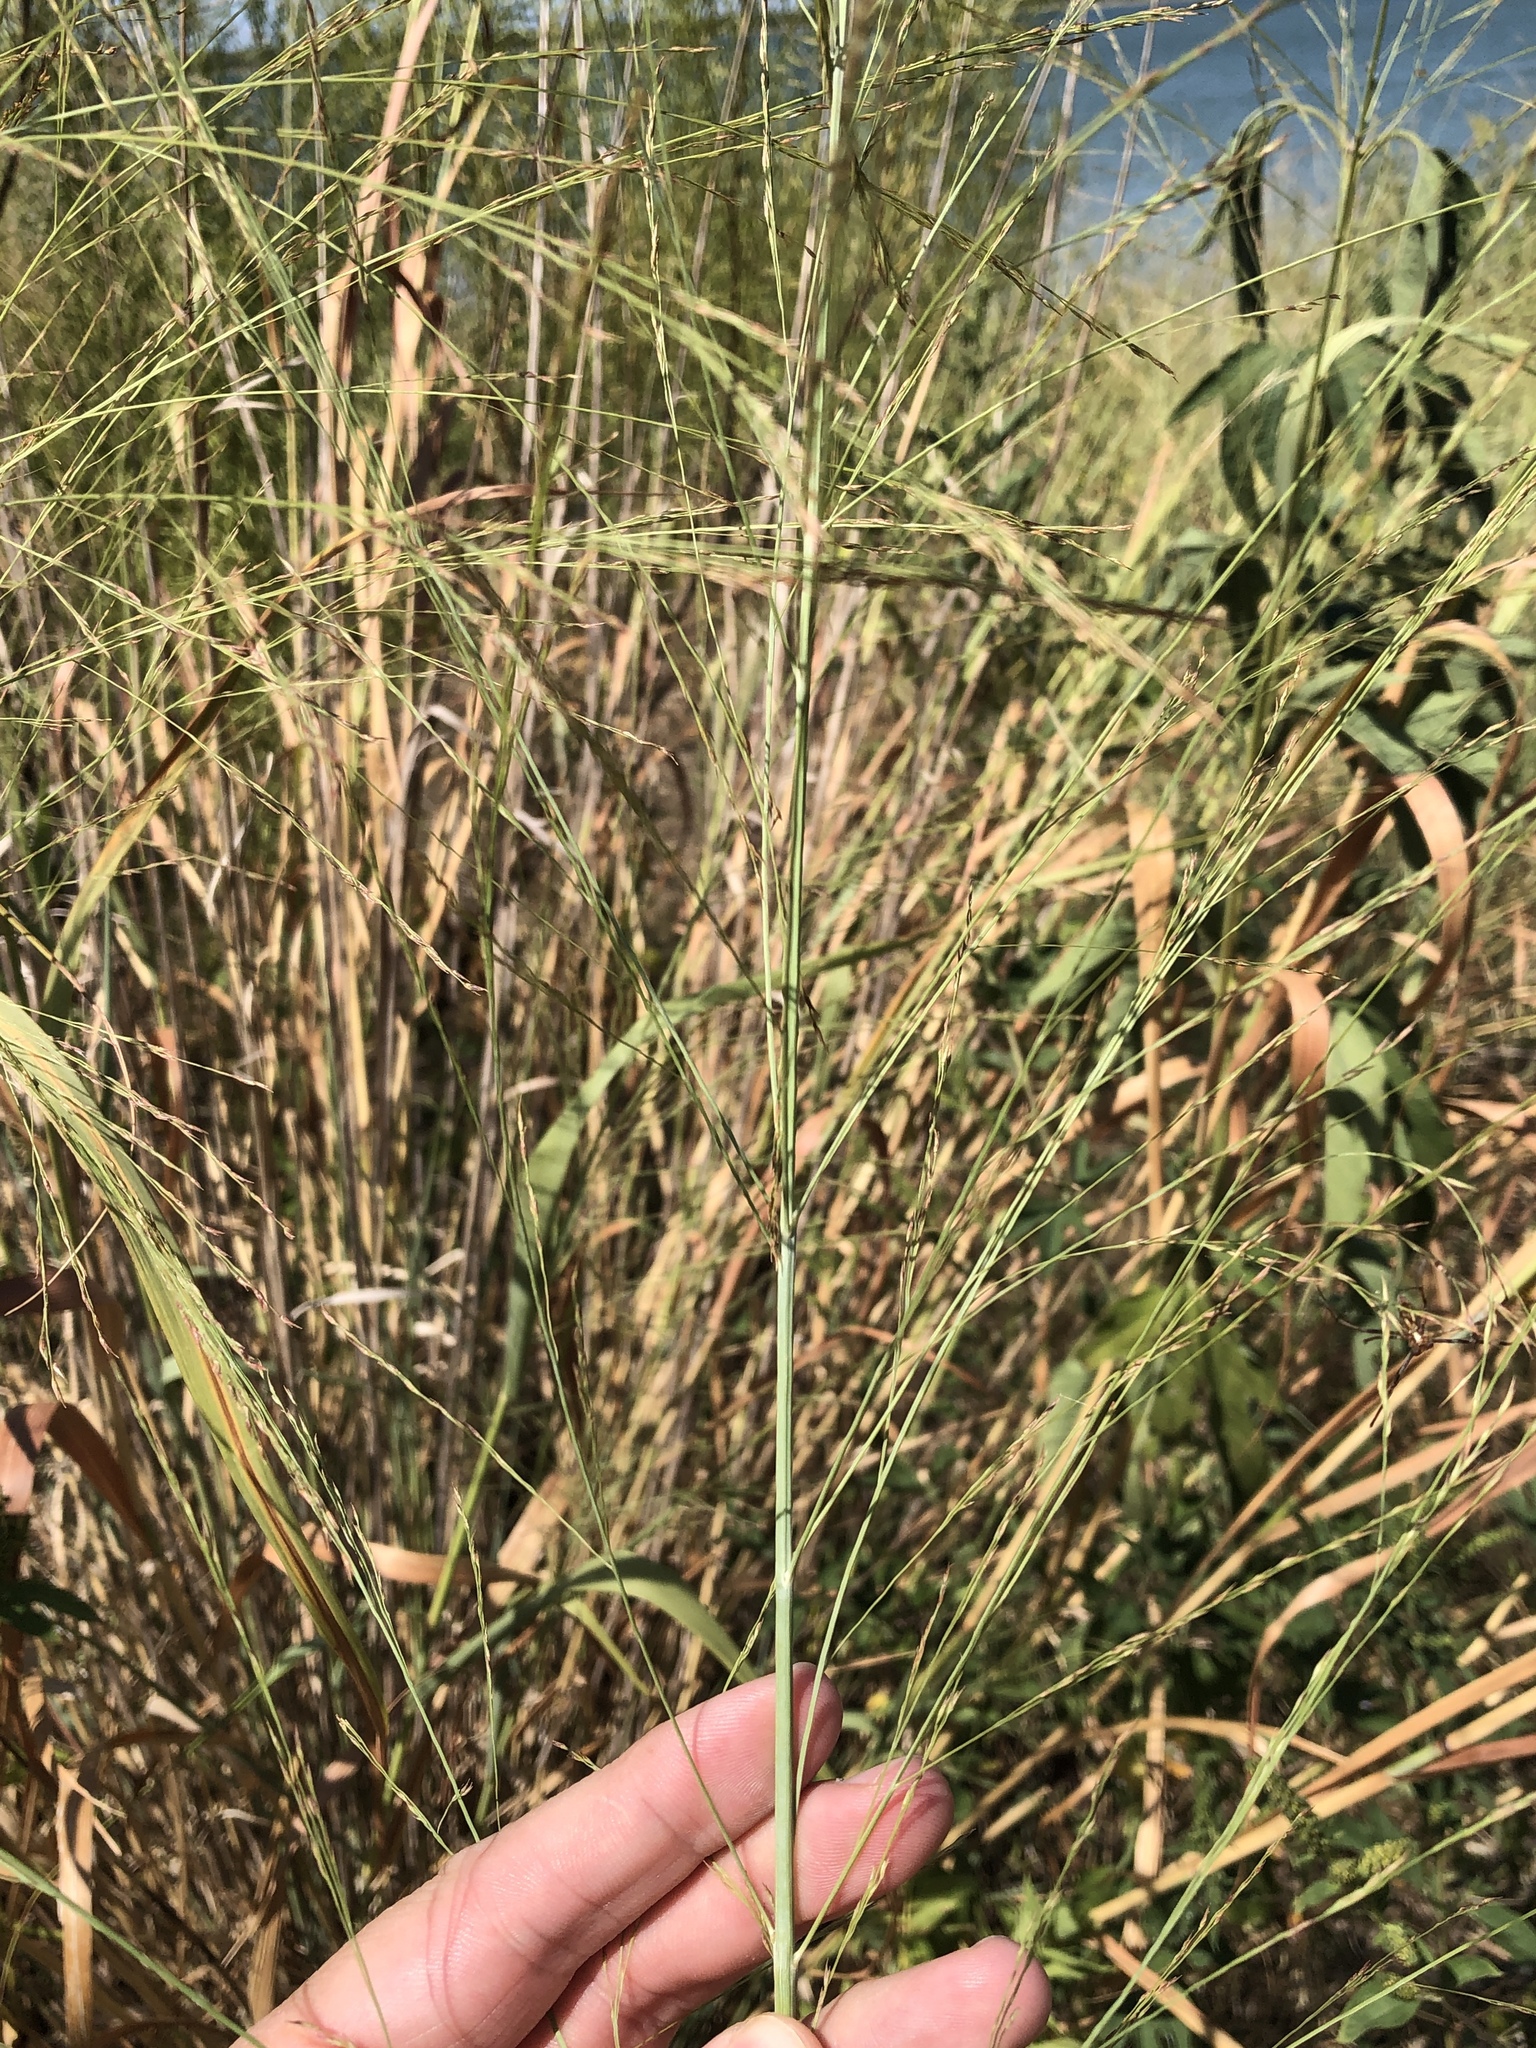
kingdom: Plantae
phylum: Tracheophyta
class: Liliopsida
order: Poales
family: Poaceae
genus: Panicum
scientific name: Panicum virgatum
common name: Switchgrass
